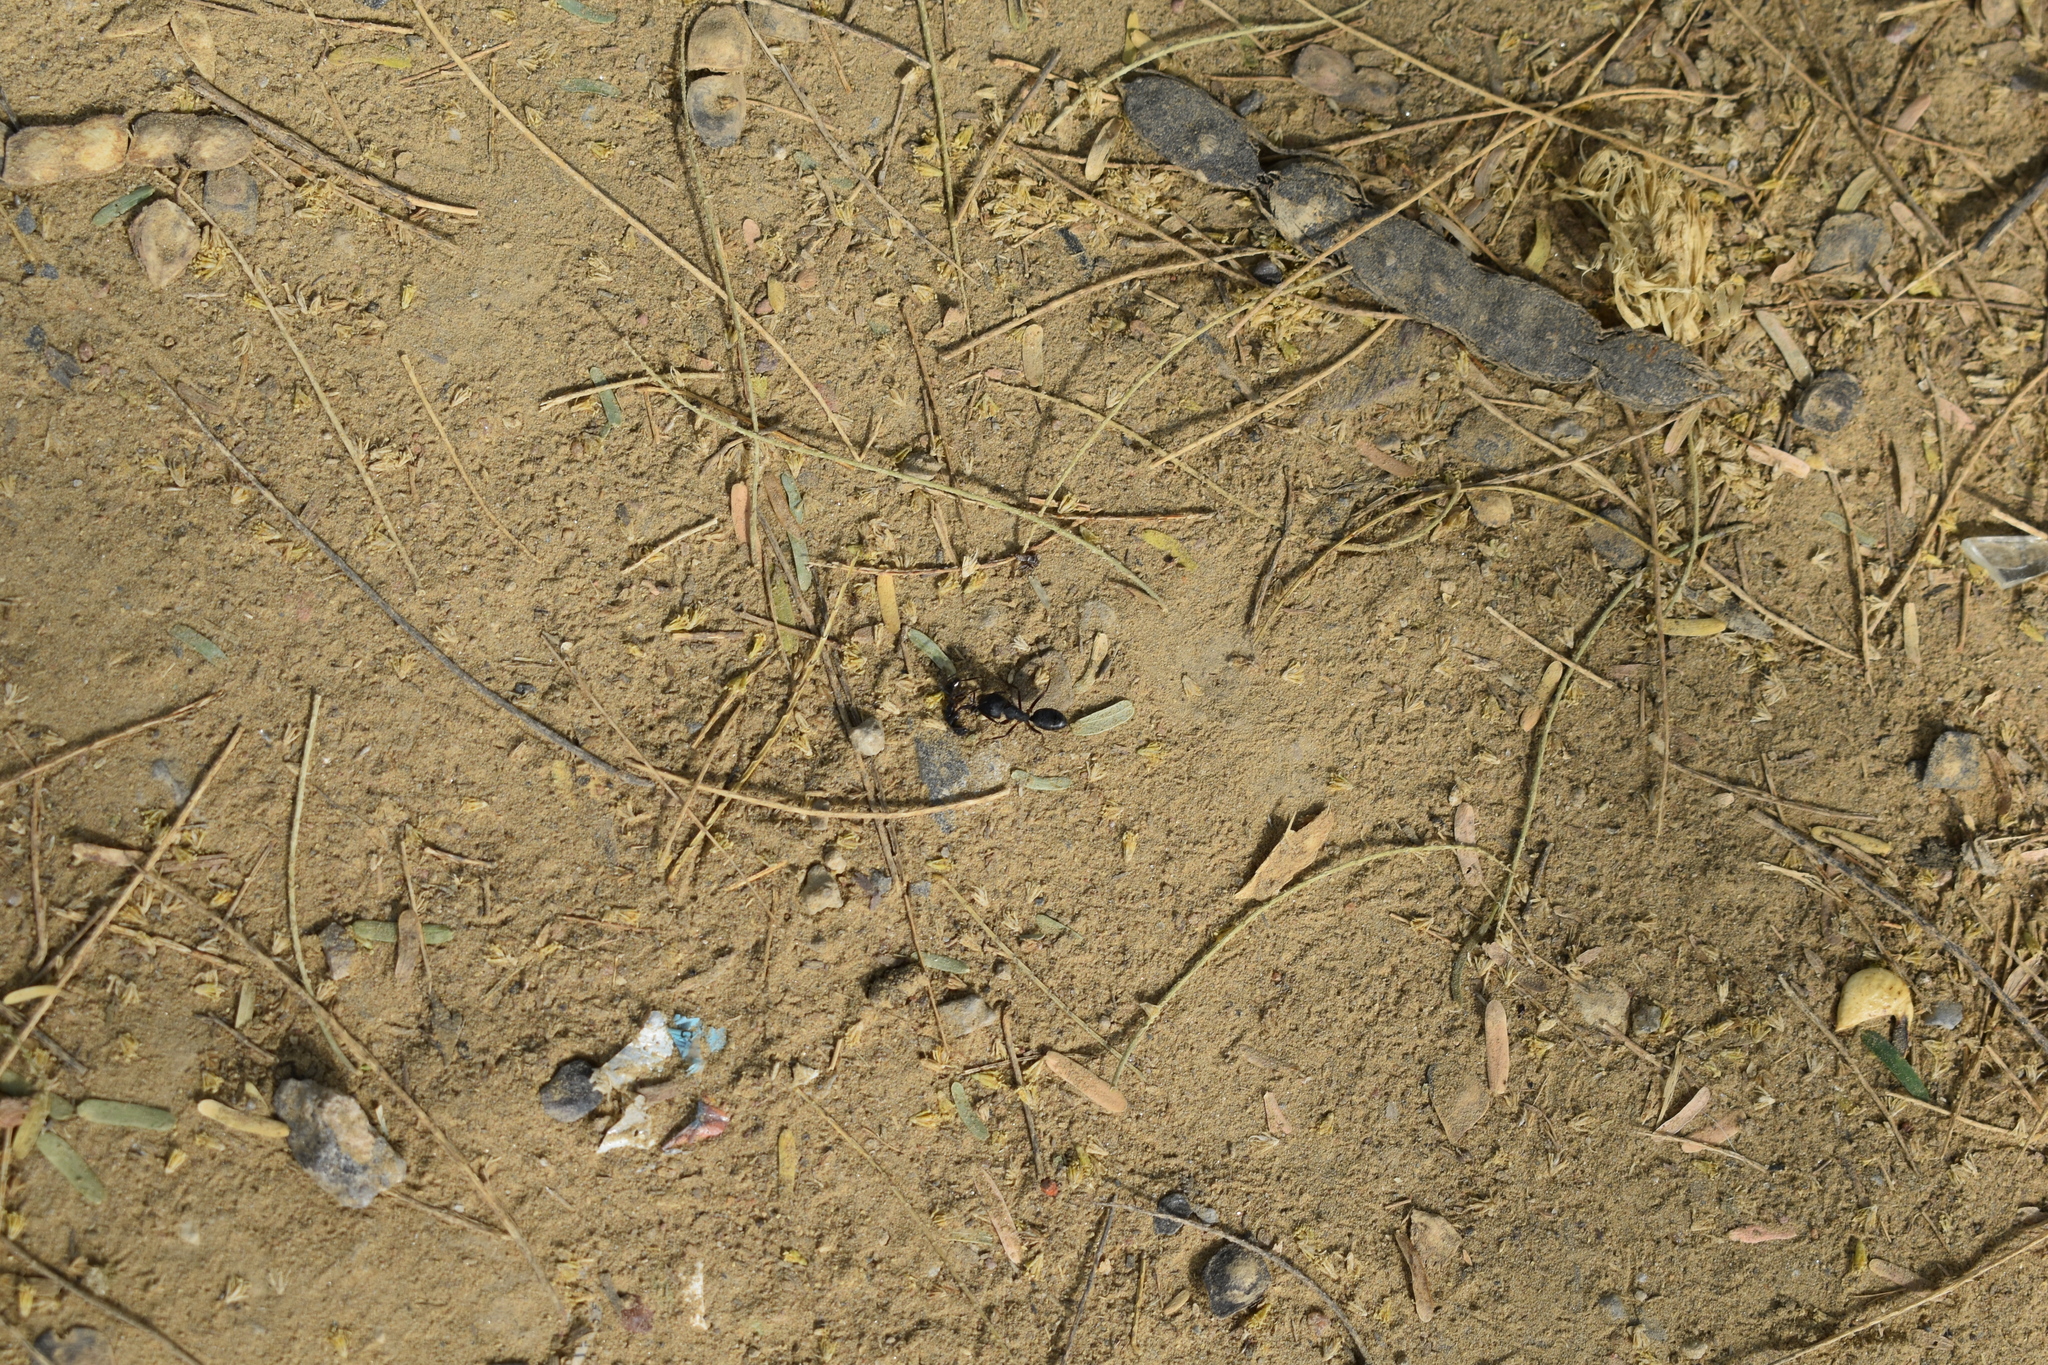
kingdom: Animalia
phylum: Arthropoda
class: Insecta
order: Hymenoptera
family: Formicidae
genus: Camponotus
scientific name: Camponotus compressus
